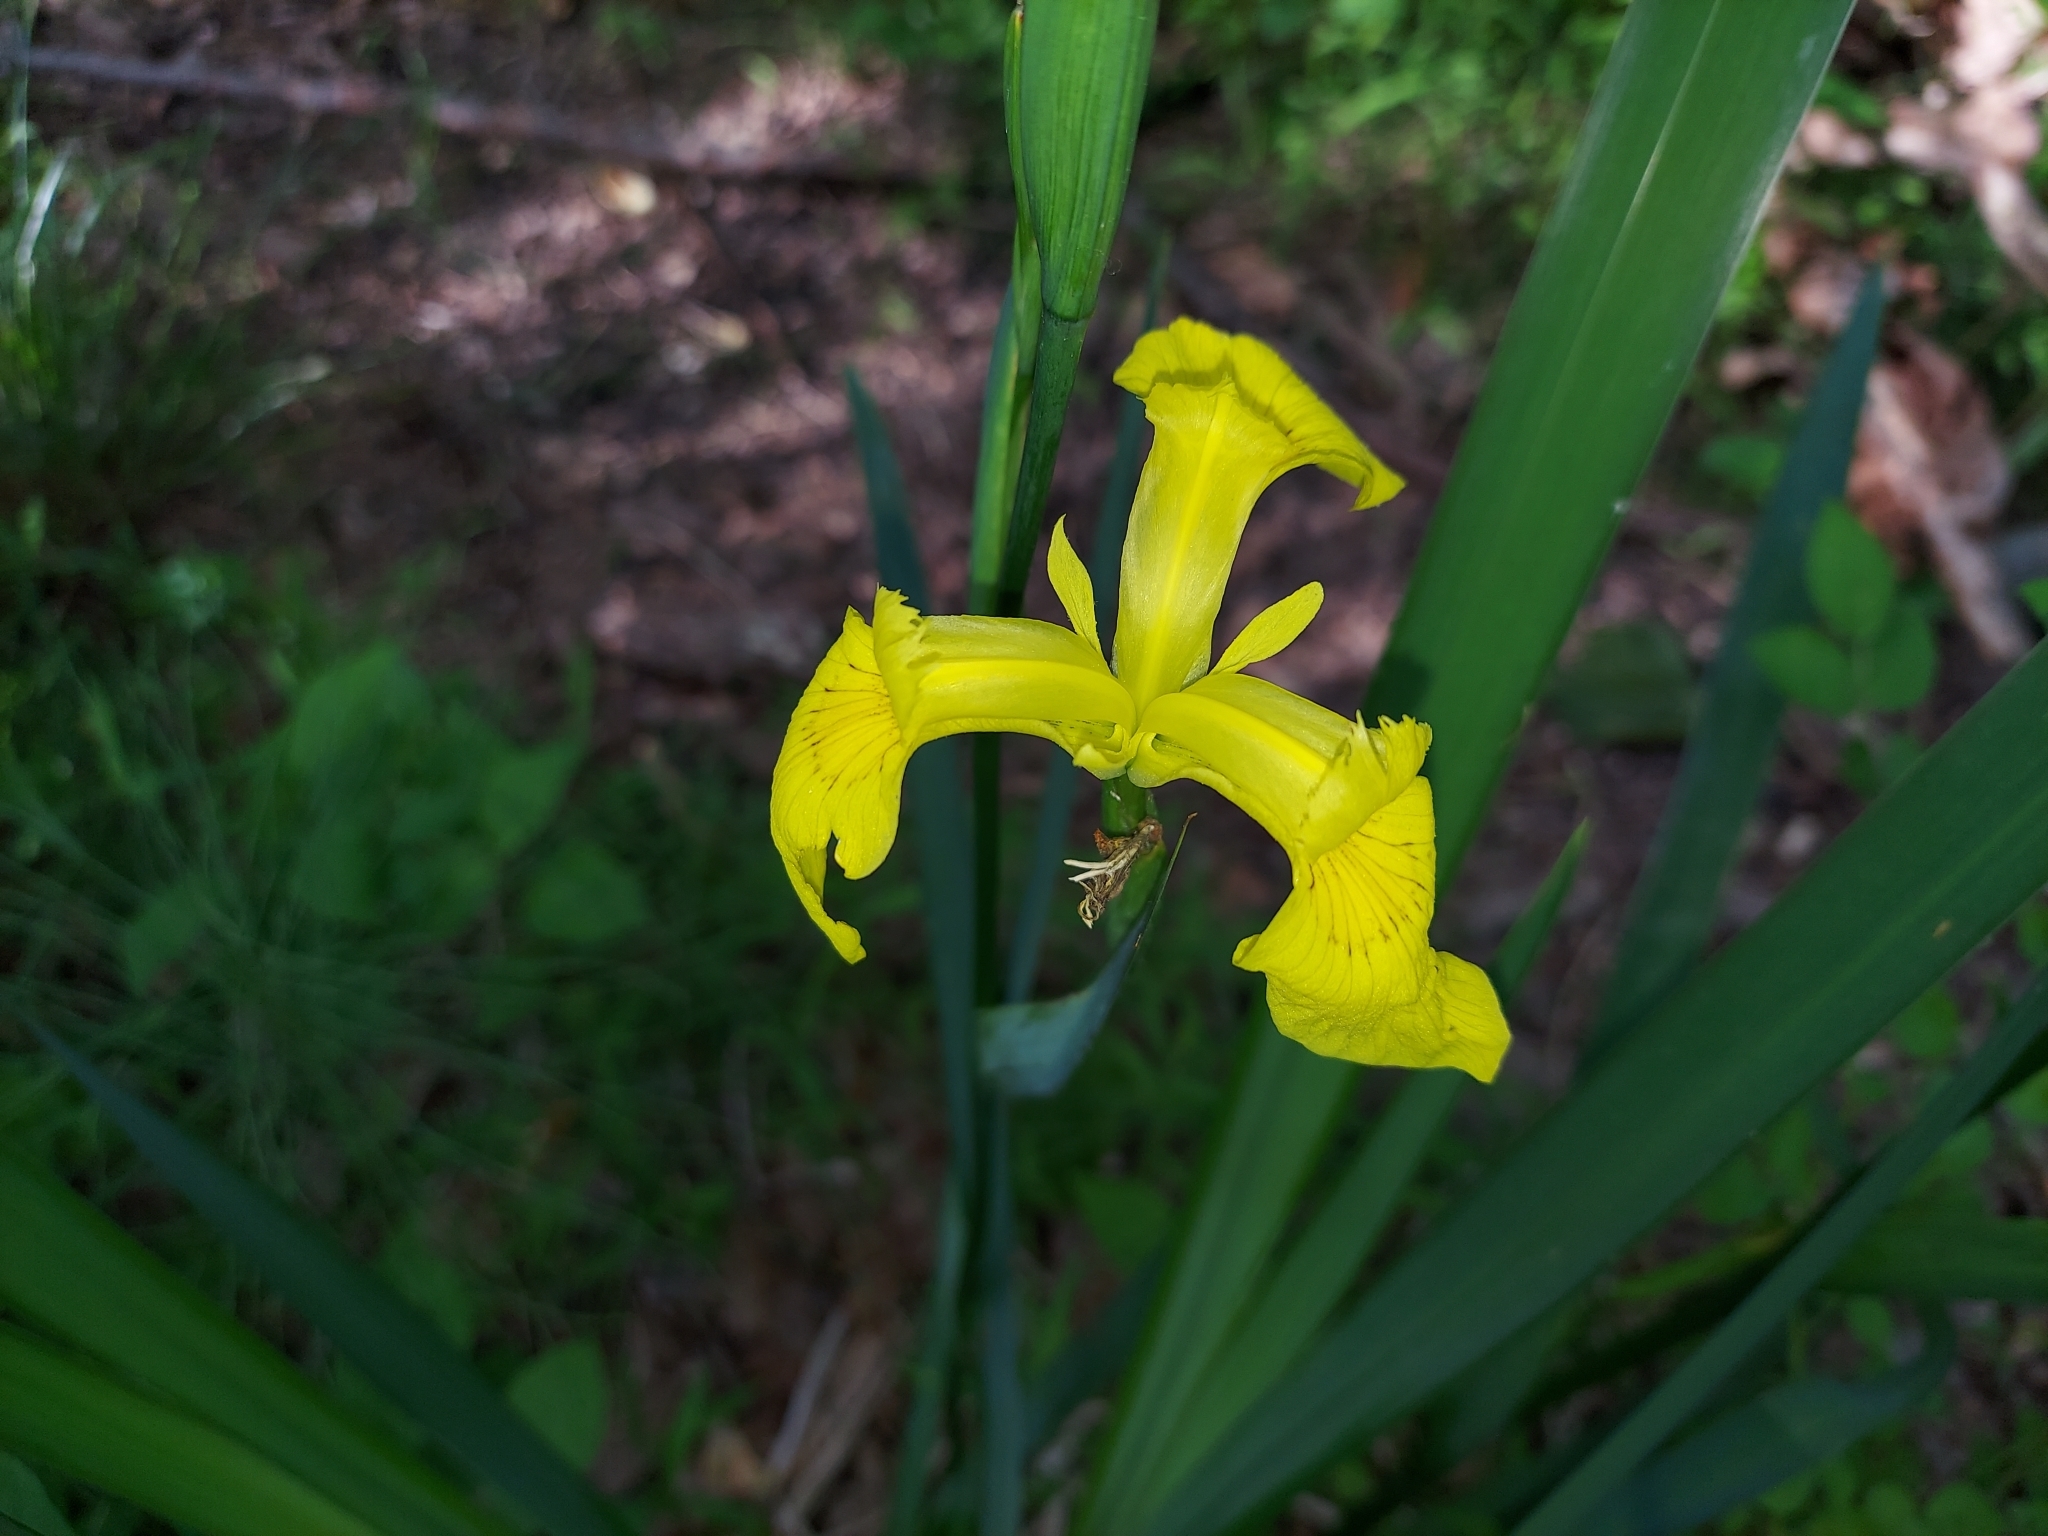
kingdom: Plantae
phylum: Tracheophyta
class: Liliopsida
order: Asparagales
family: Iridaceae
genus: Iris
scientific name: Iris pseudacorus
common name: Yellow flag
